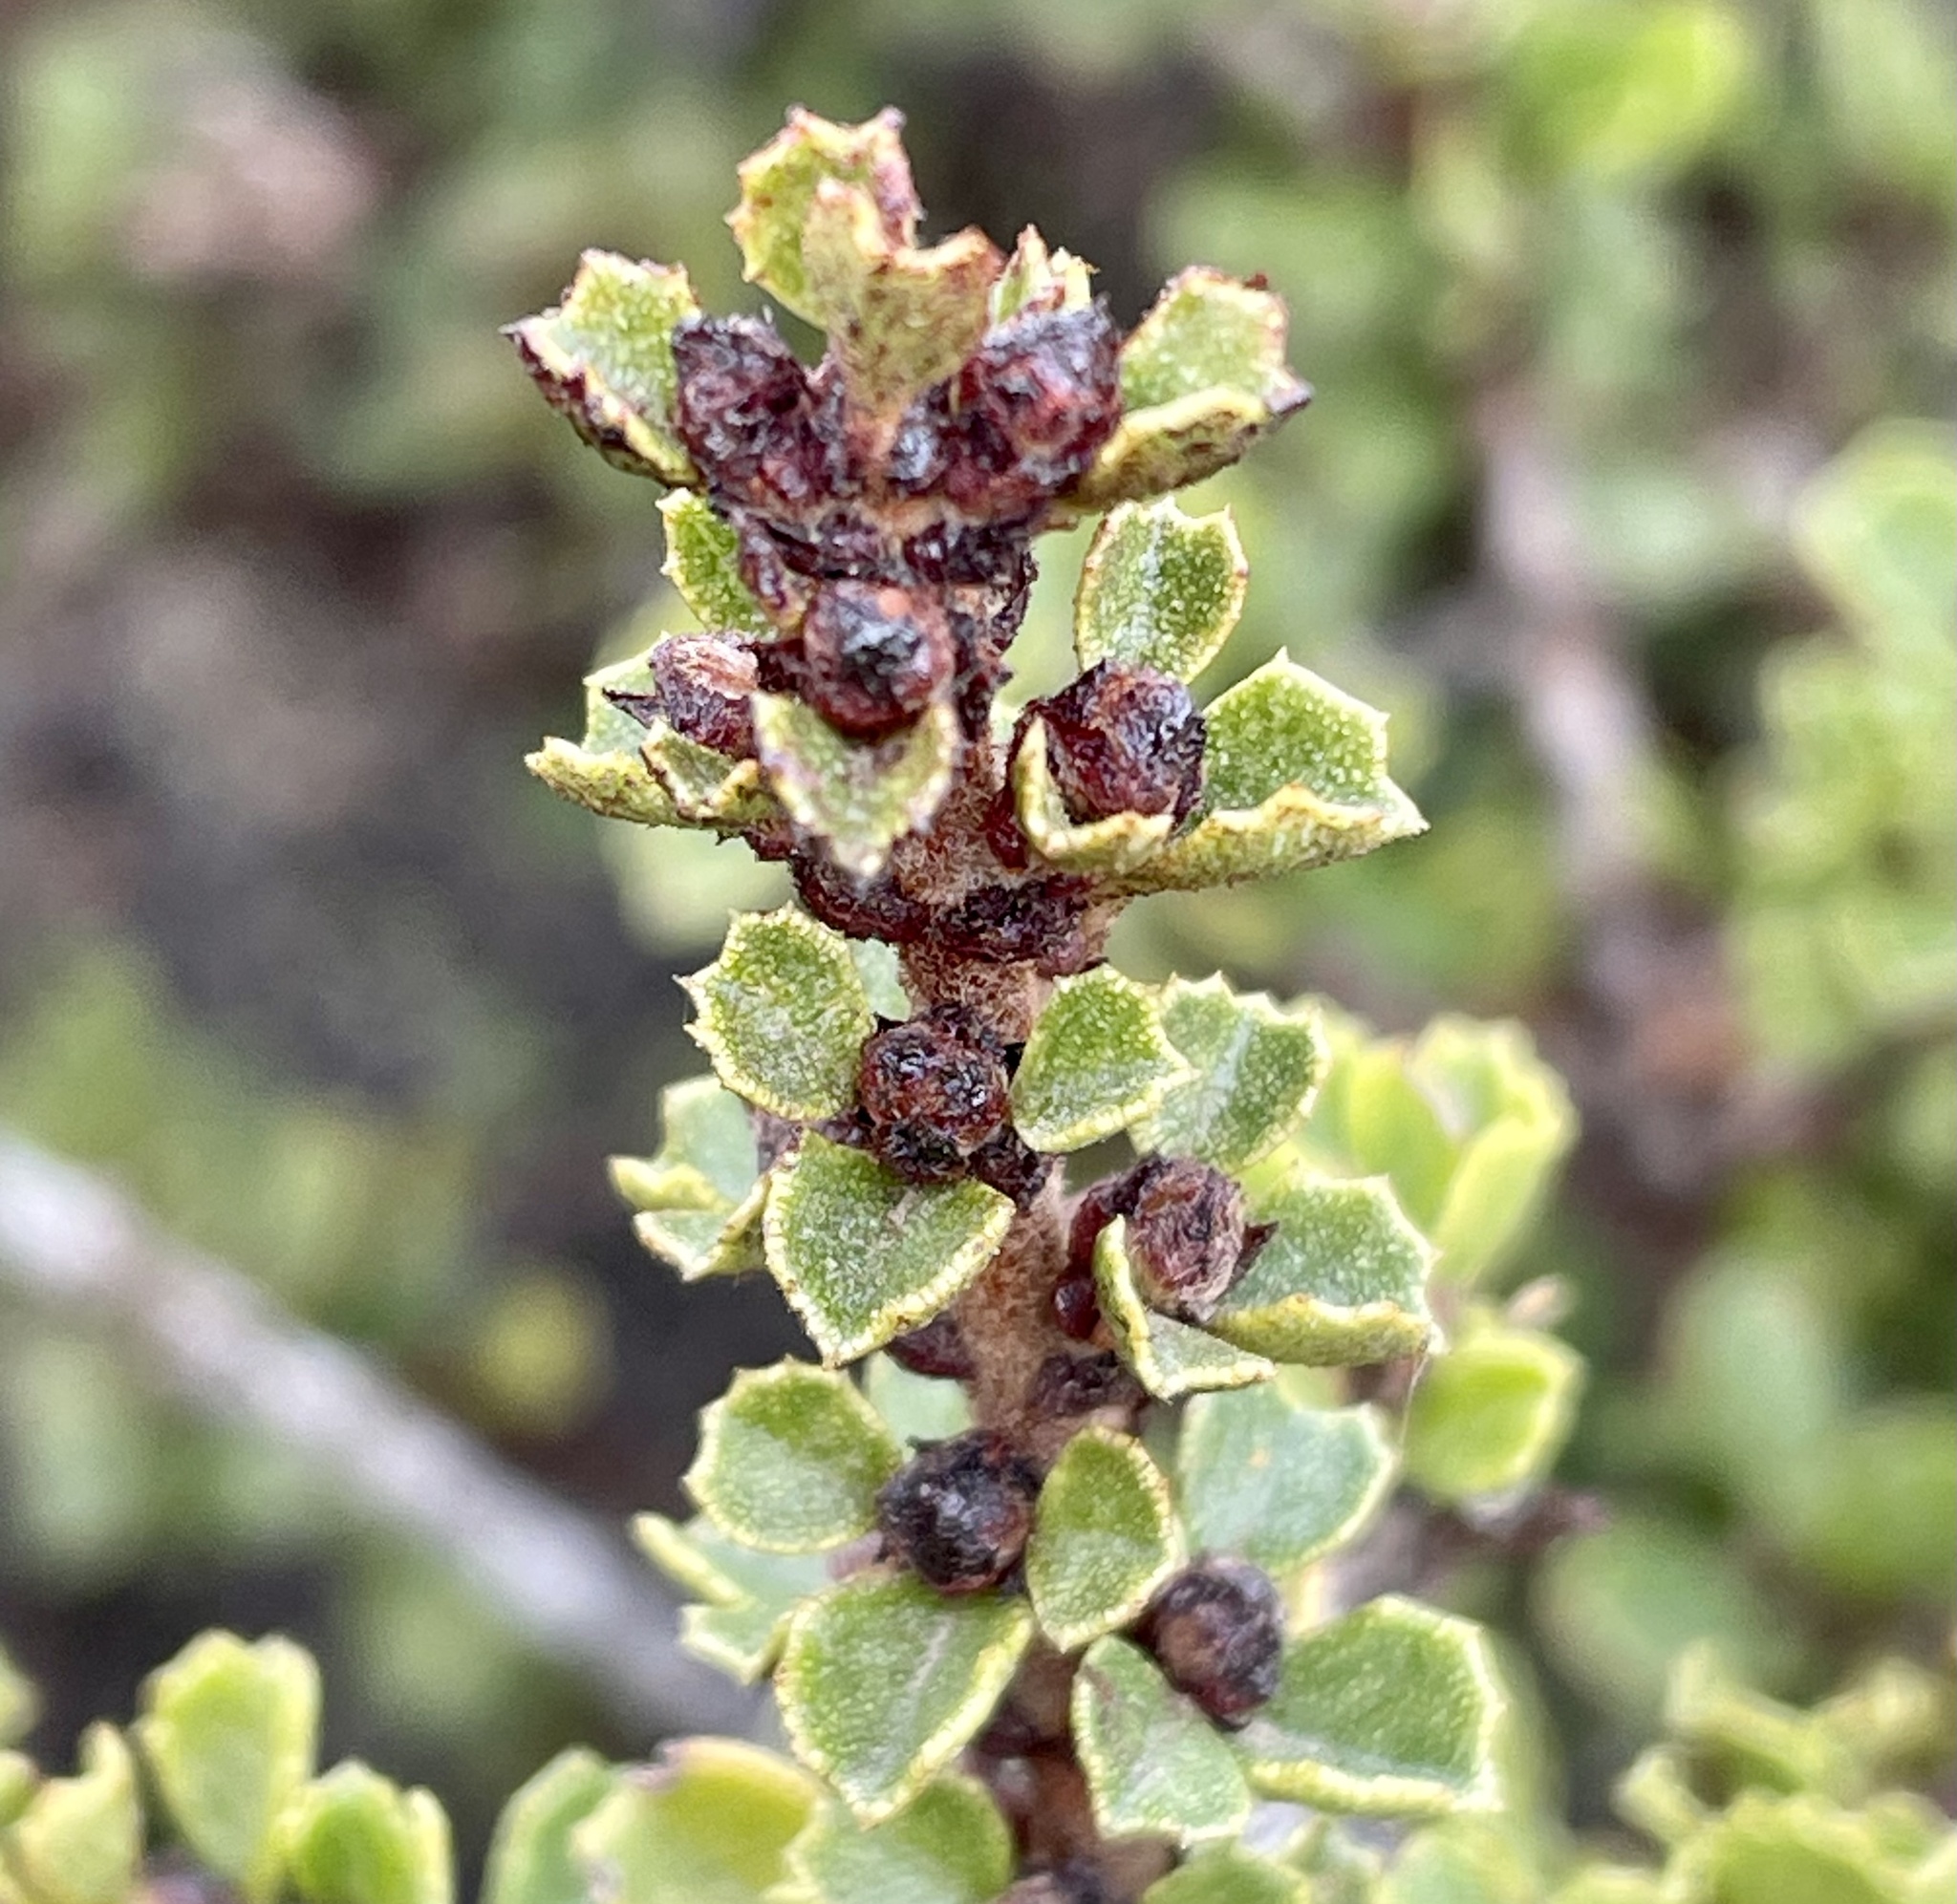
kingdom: Plantae
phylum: Tracheophyta
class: Magnoliopsida
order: Rosales
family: Rhamnaceae
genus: Ceanothus
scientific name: Ceanothus cuneatus
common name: Cuneate ceanothus
